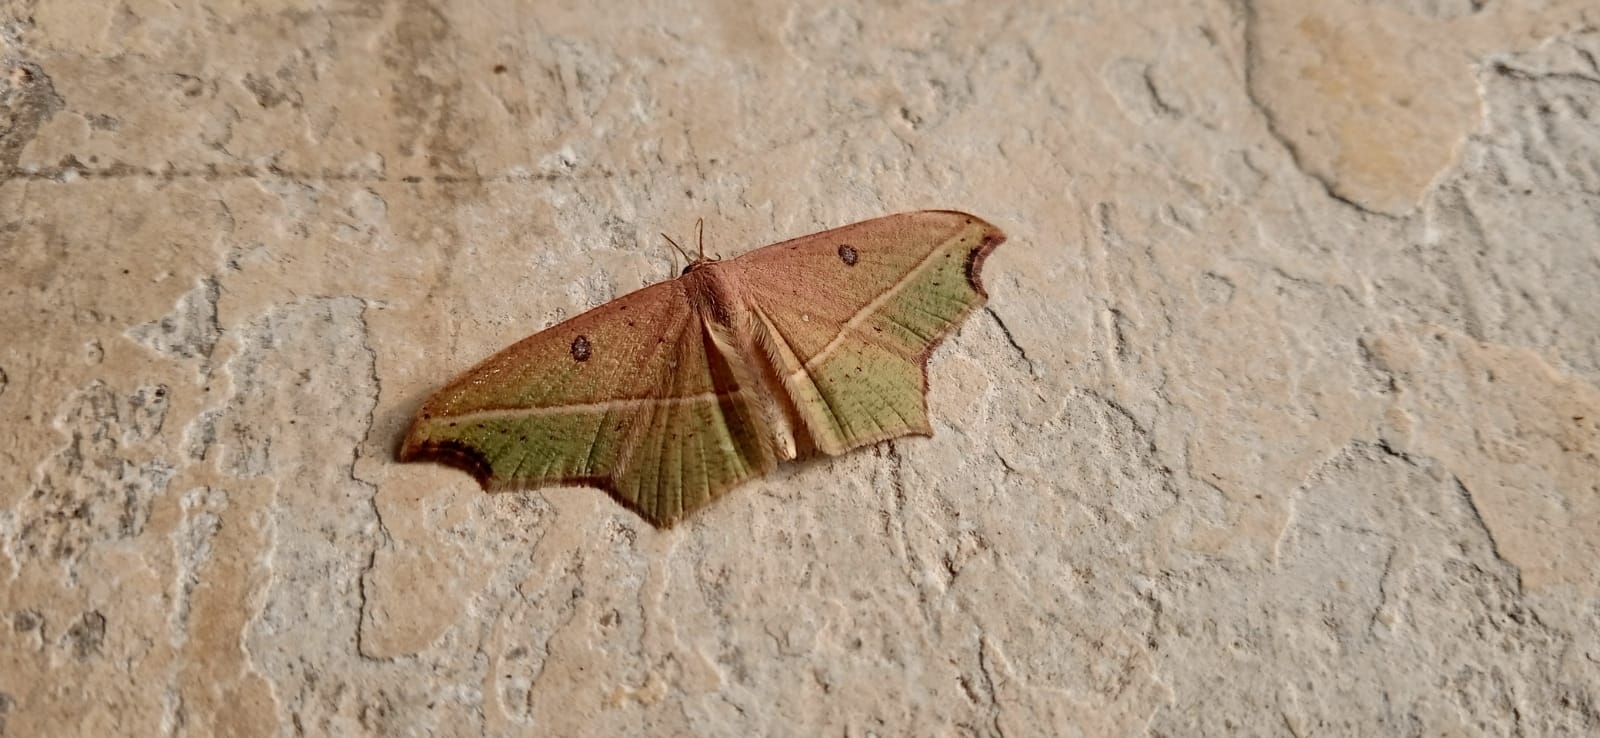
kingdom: Animalia
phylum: Arthropoda
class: Insecta
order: Lepidoptera
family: Geometridae
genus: Traminda
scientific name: Traminda aventiaria
